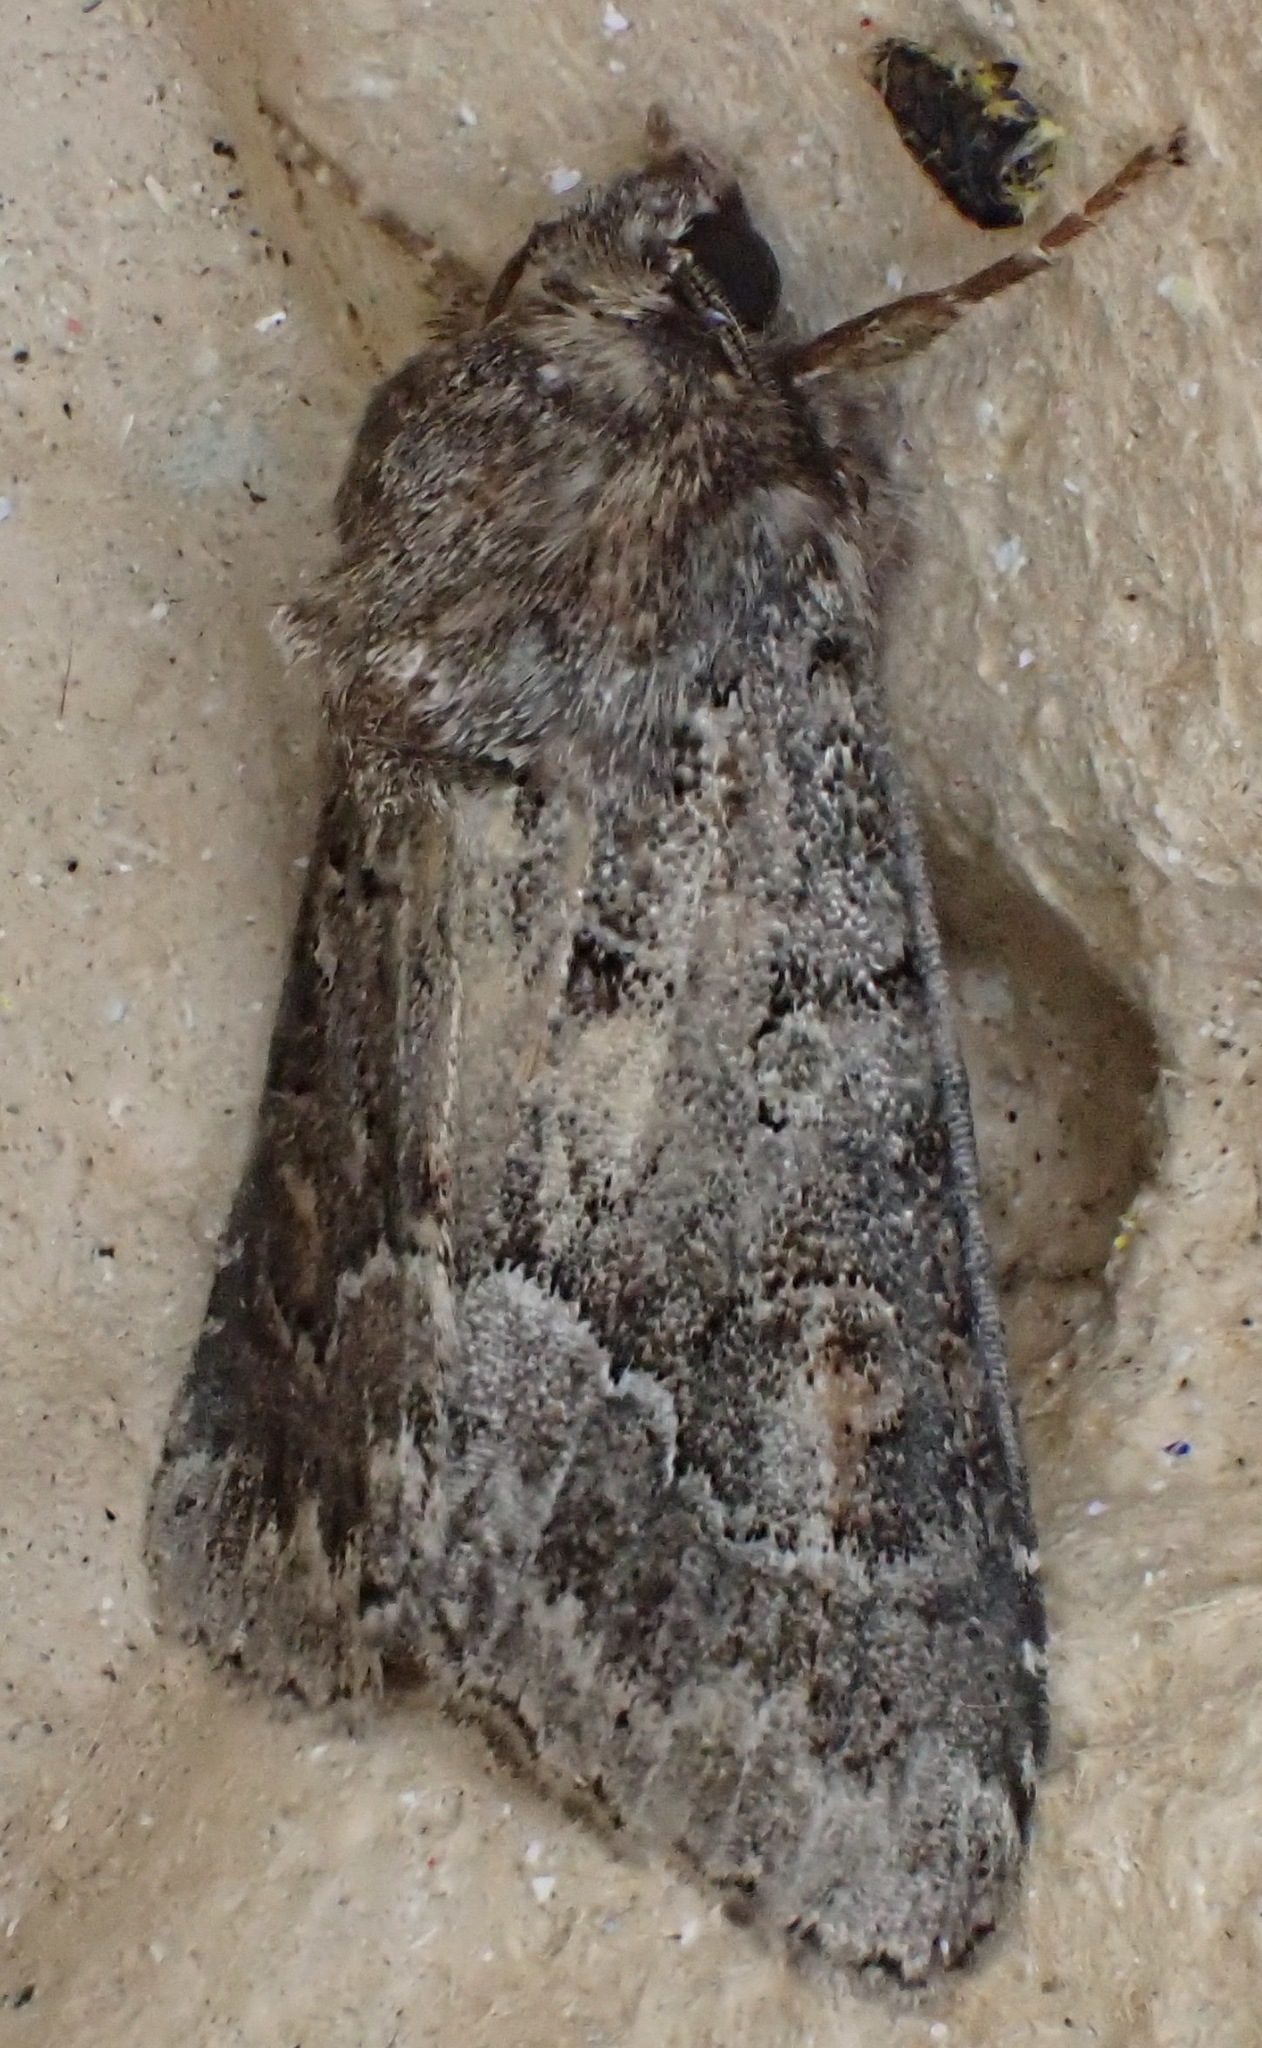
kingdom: Animalia
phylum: Arthropoda
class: Insecta
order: Lepidoptera
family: Noctuidae
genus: Thalpophila
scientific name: Thalpophila matura
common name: Straw underwing
